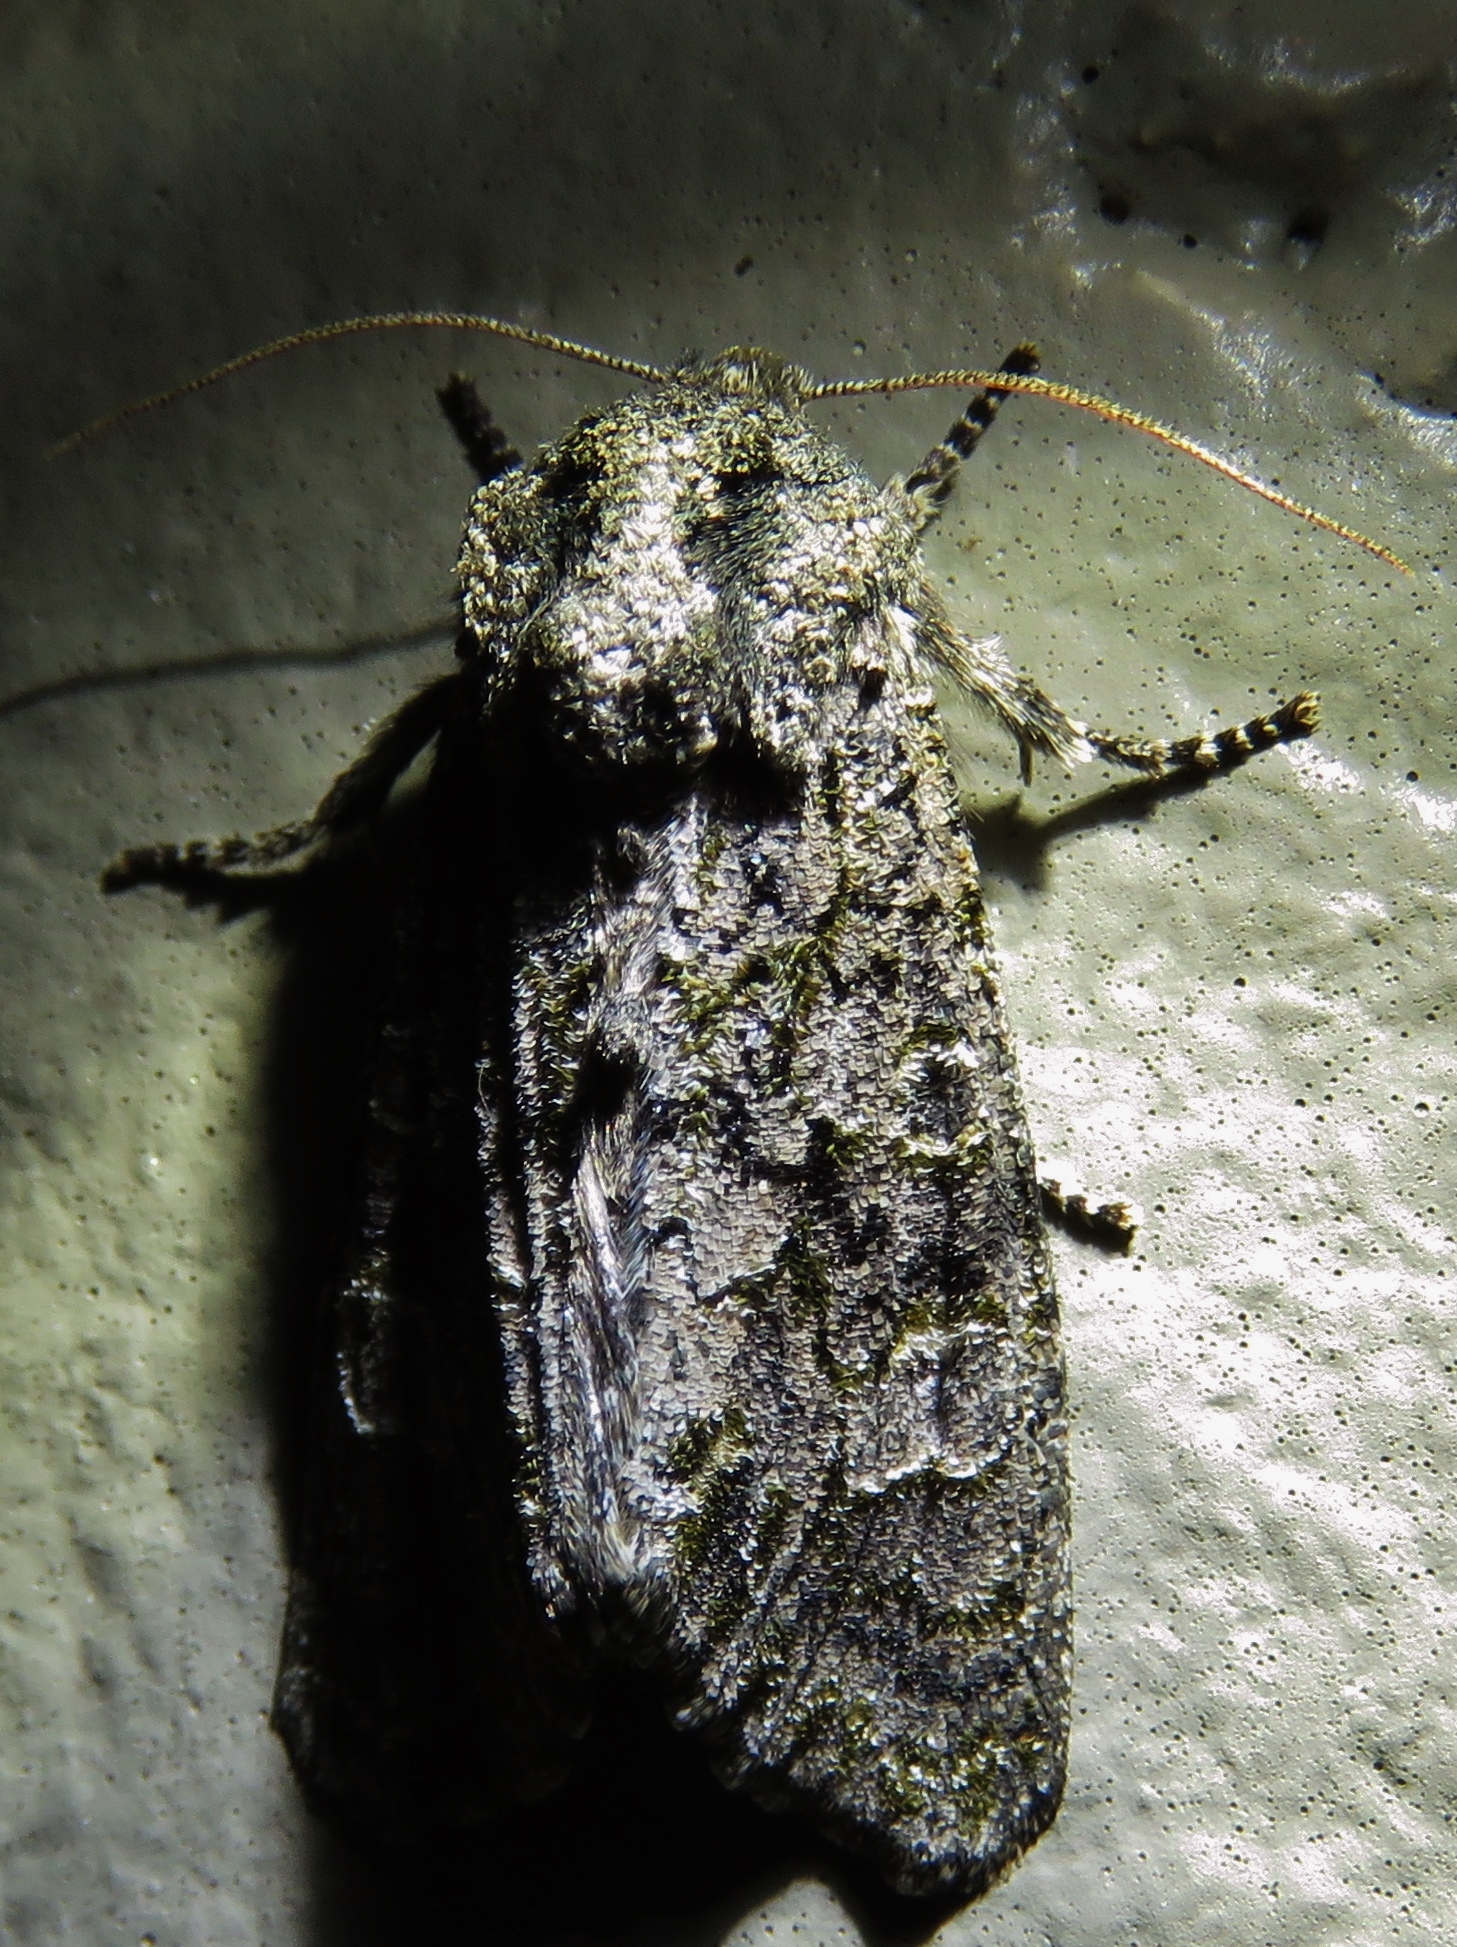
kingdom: Animalia
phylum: Arthropoda
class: Insecta
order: Lepidoptera
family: Noctuidae
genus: Psaphida
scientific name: Psaphida grotei
